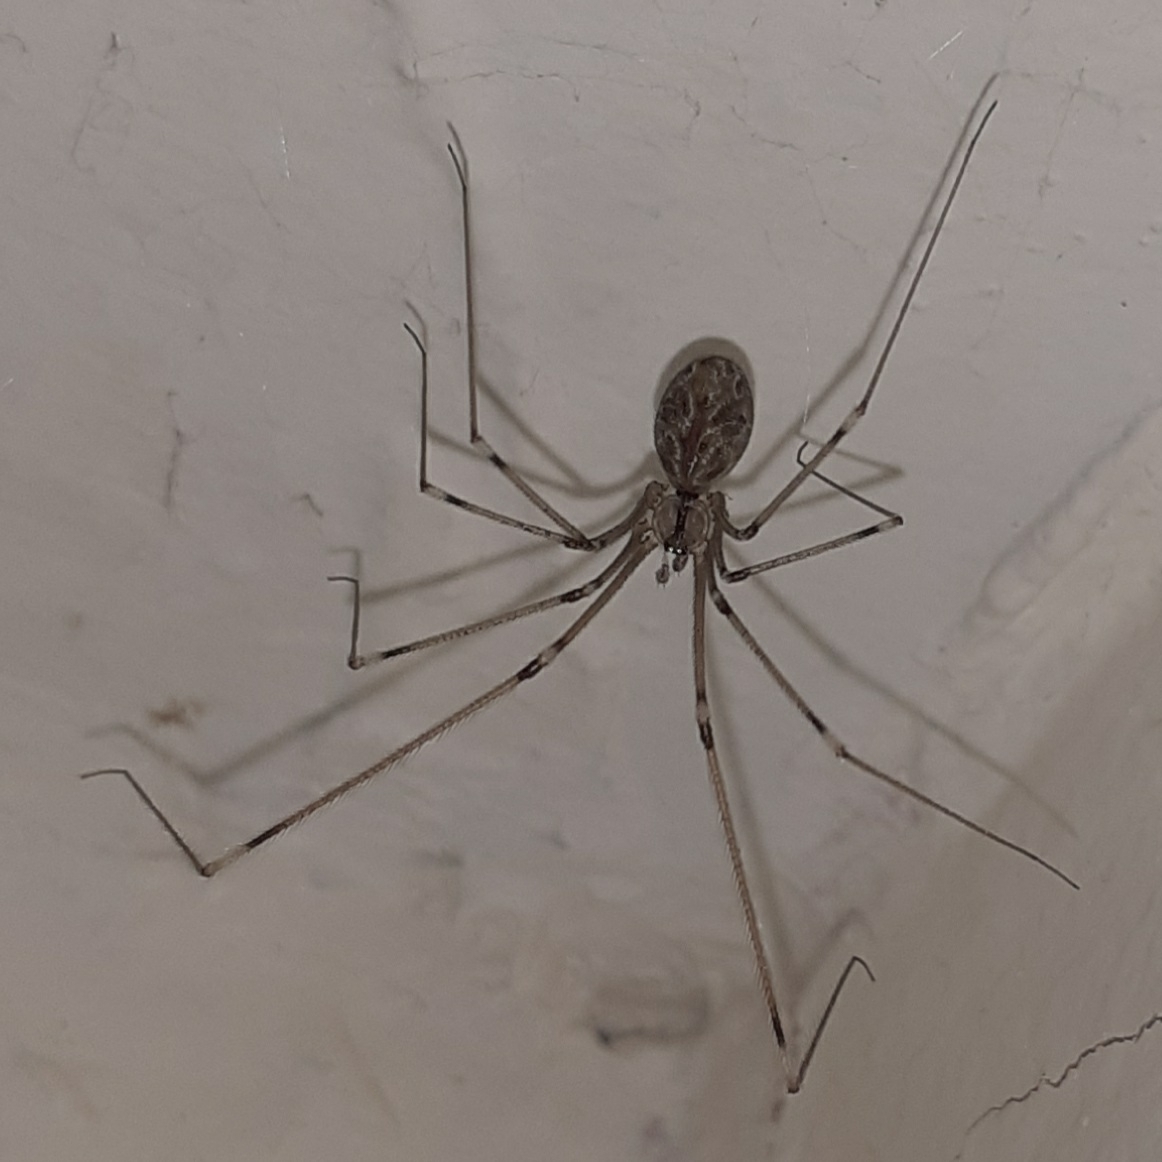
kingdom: Animalia
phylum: Arthropoda
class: Arachnida
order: Araneae
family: Pholcidae
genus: Holocnemus
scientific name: Holocnemus pluchei
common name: Marbled cellar spider
